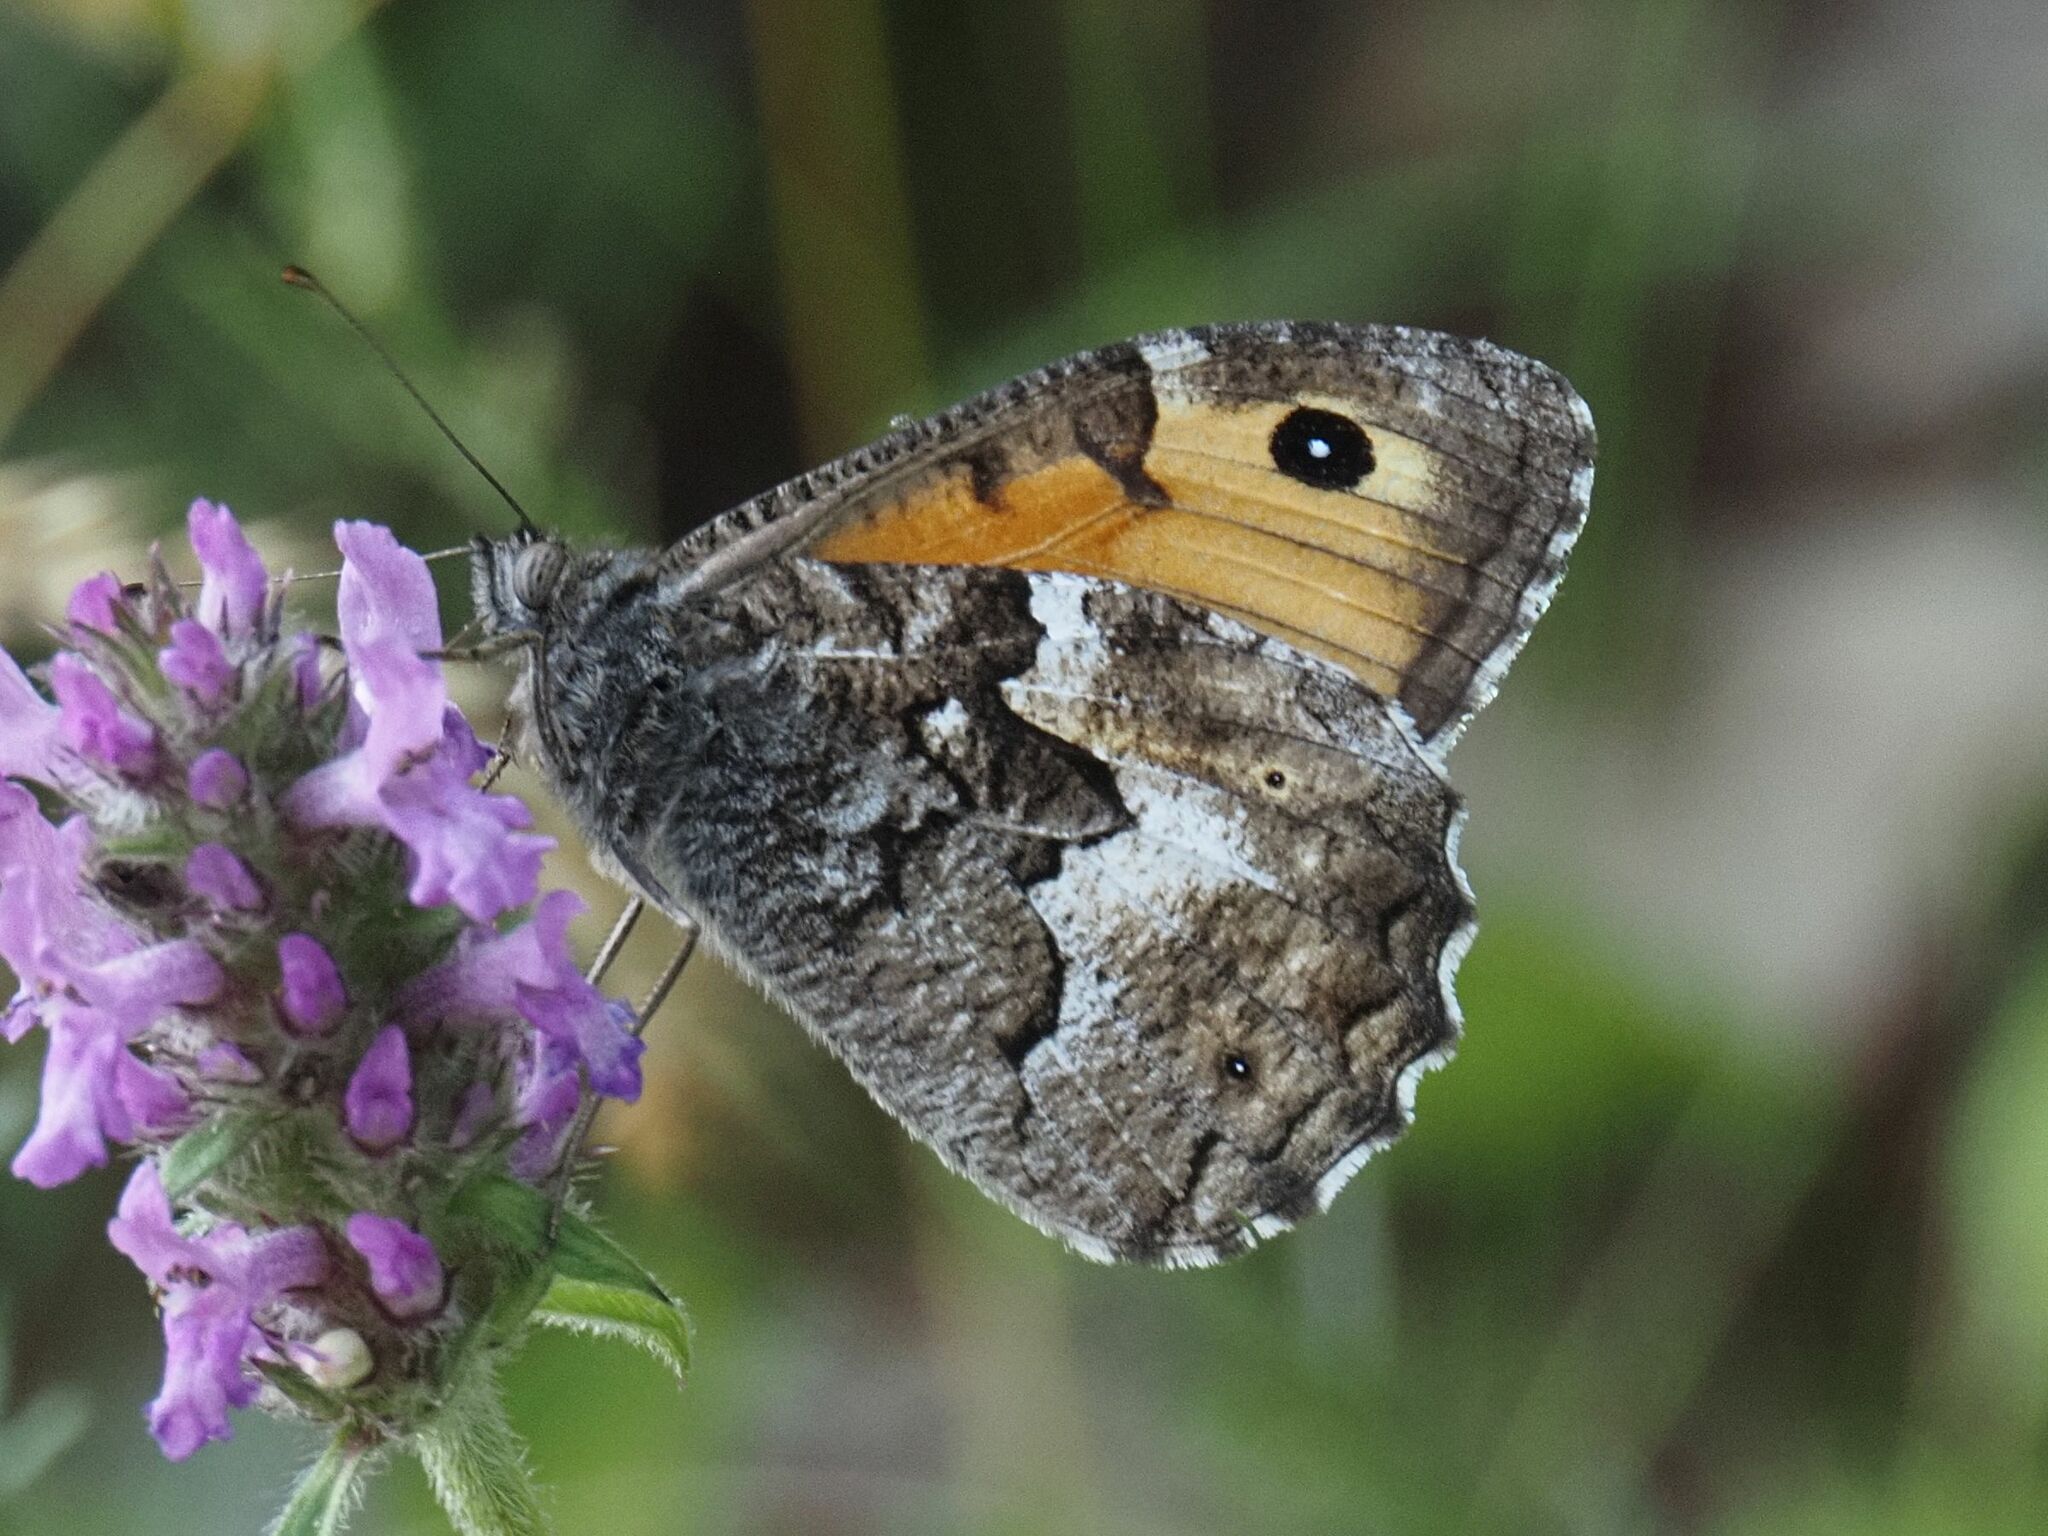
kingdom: Animalia
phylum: Arthropoda
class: Insecta
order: Lepidoptera
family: Nymphalidae
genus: Hipparchia
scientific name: Hipparchia semele
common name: Grayling
